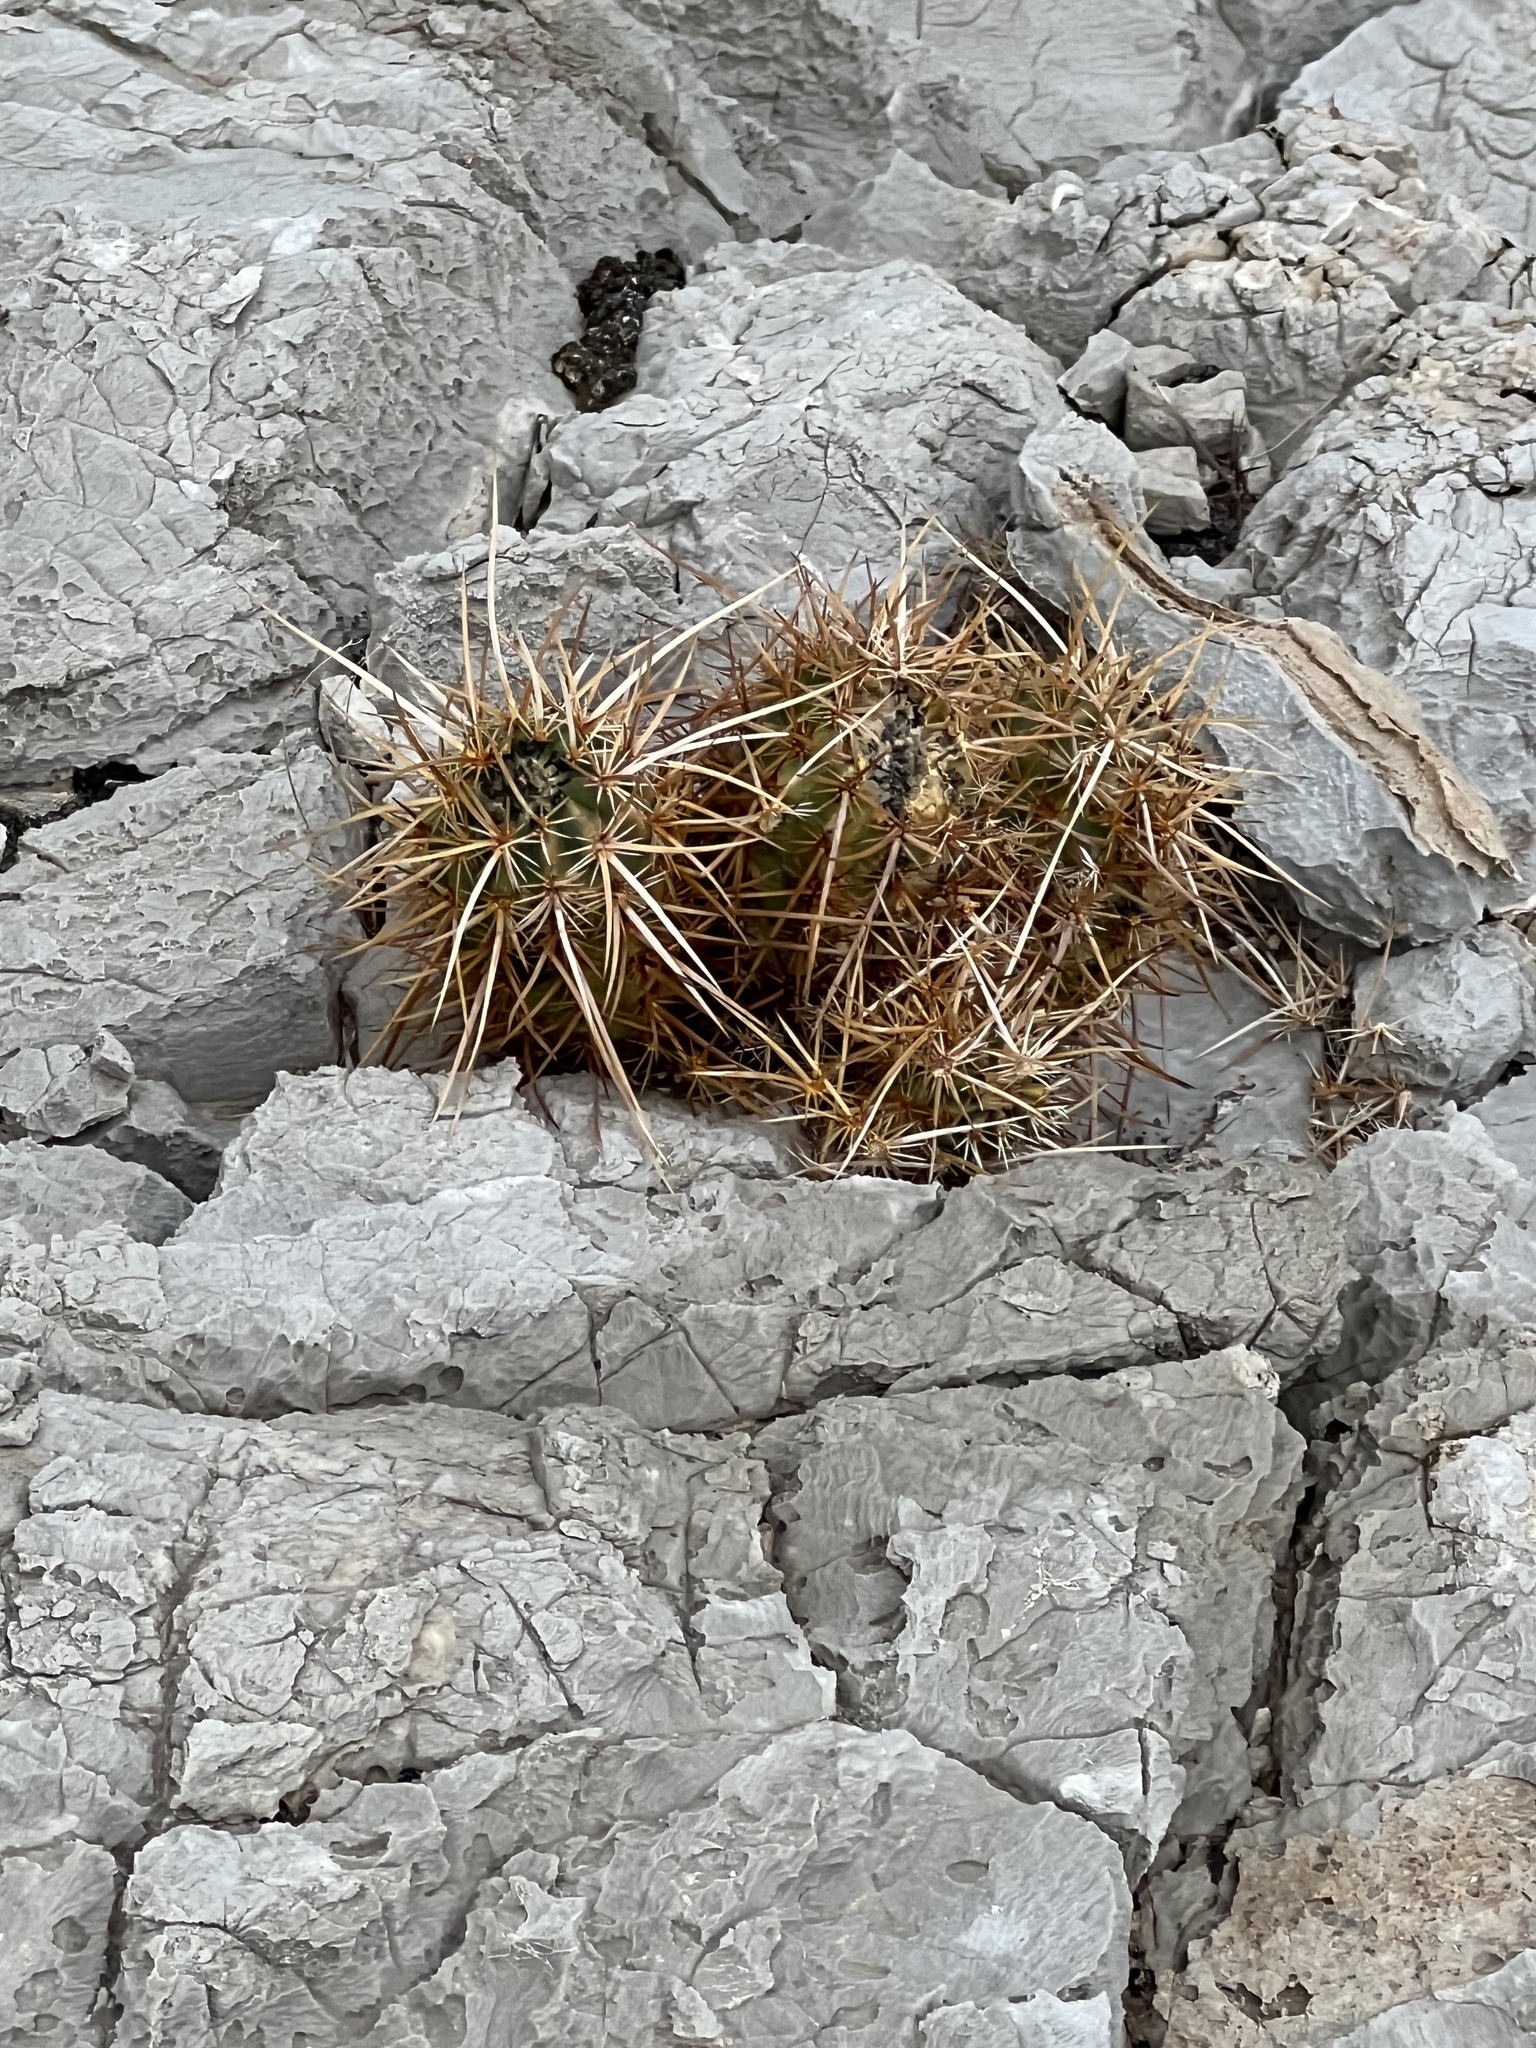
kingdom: Plantae
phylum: Tracheophyta
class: Magnoliopsida
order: Caryophyllales
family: Cactaceae
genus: Echinocereus
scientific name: Echinocereus engelmannii
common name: Engelmann's hedgehog cactus
